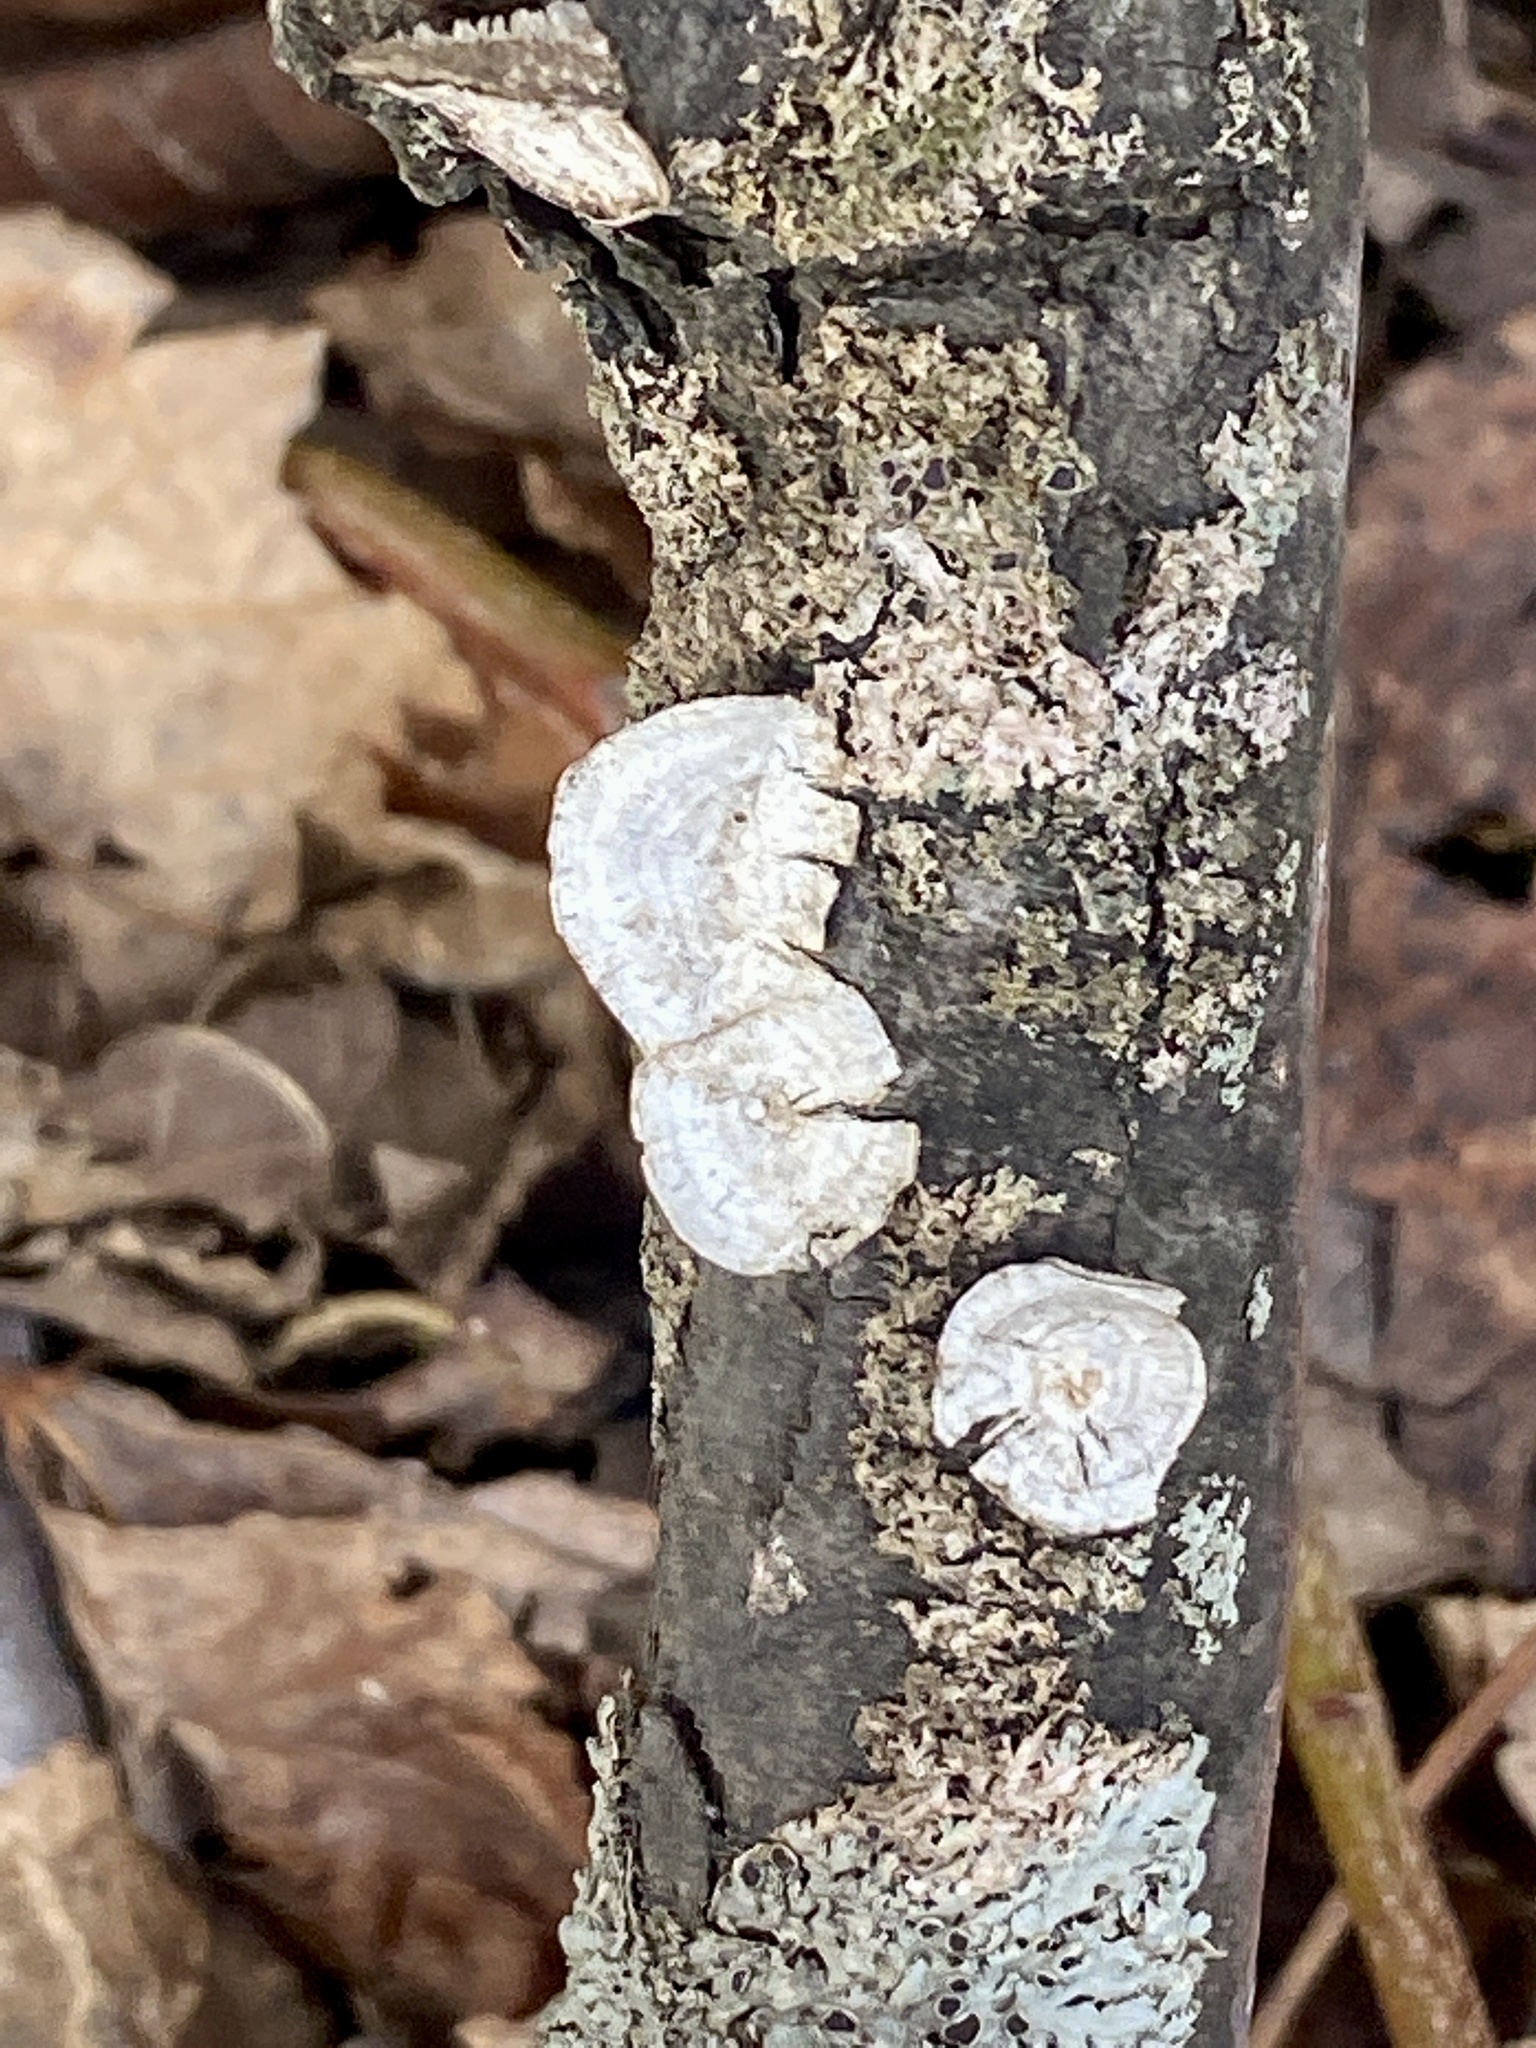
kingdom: Fungi
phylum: Basidiomycota
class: Agaricomycetes
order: Polyporales
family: Polyporaceae
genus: Poronidulus
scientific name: Poronidulus conchifer
